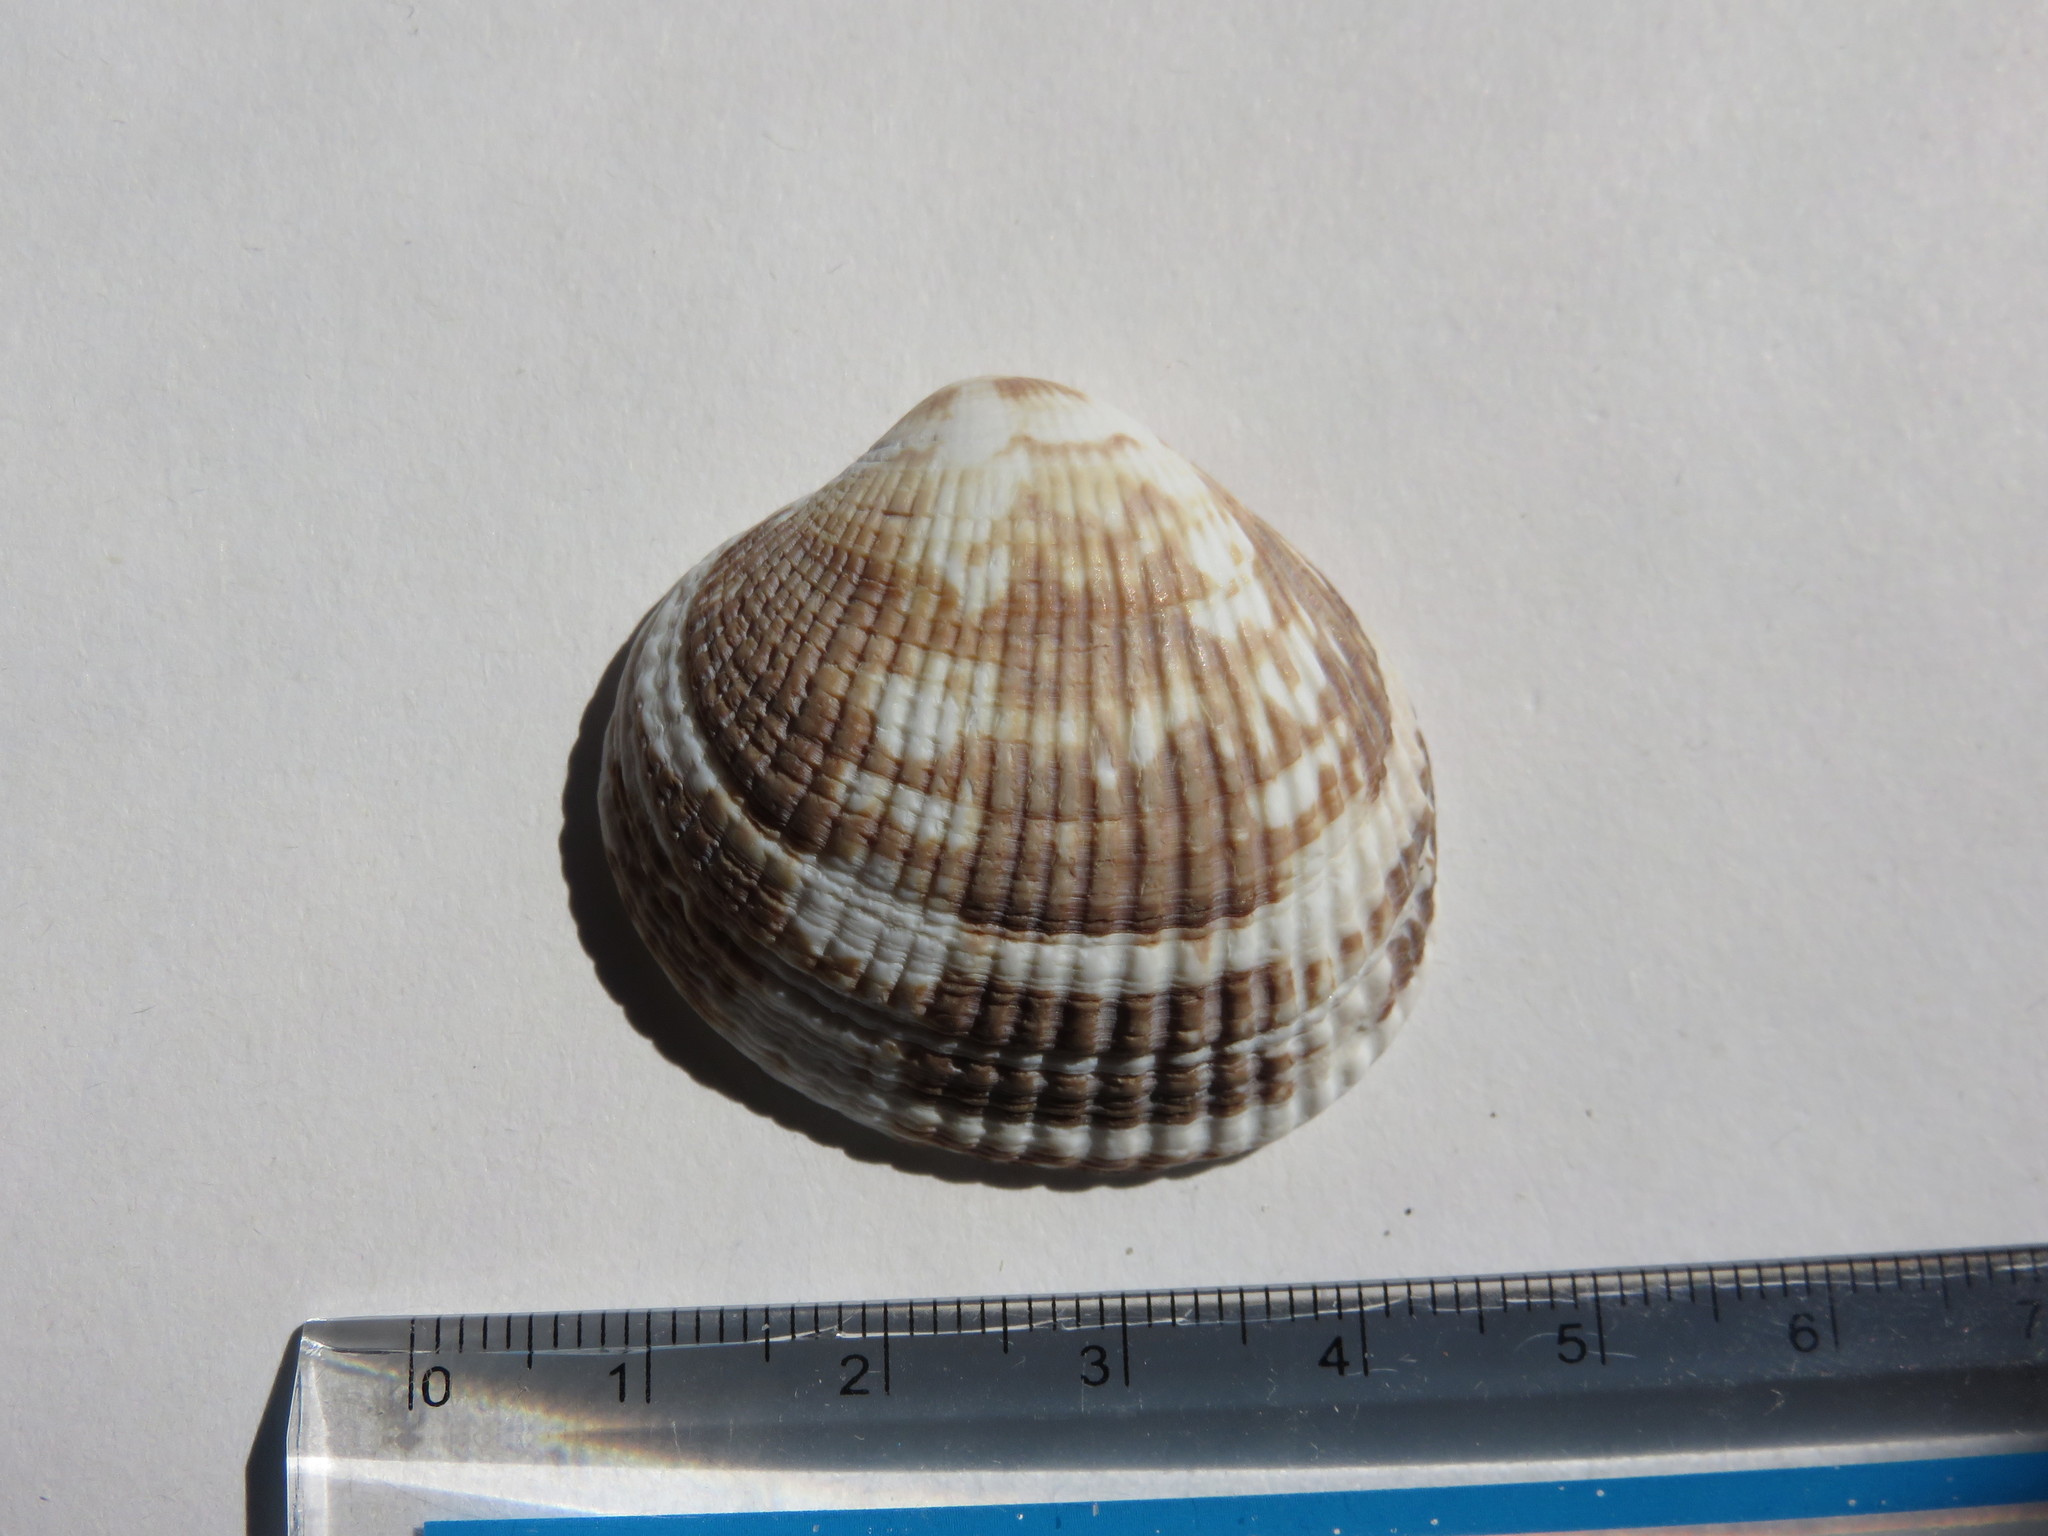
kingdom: Animalia
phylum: Mollusca
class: Bivalvia
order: Venerida
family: Veneridae
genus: Leukoma
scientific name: Leukoma jedoensis
